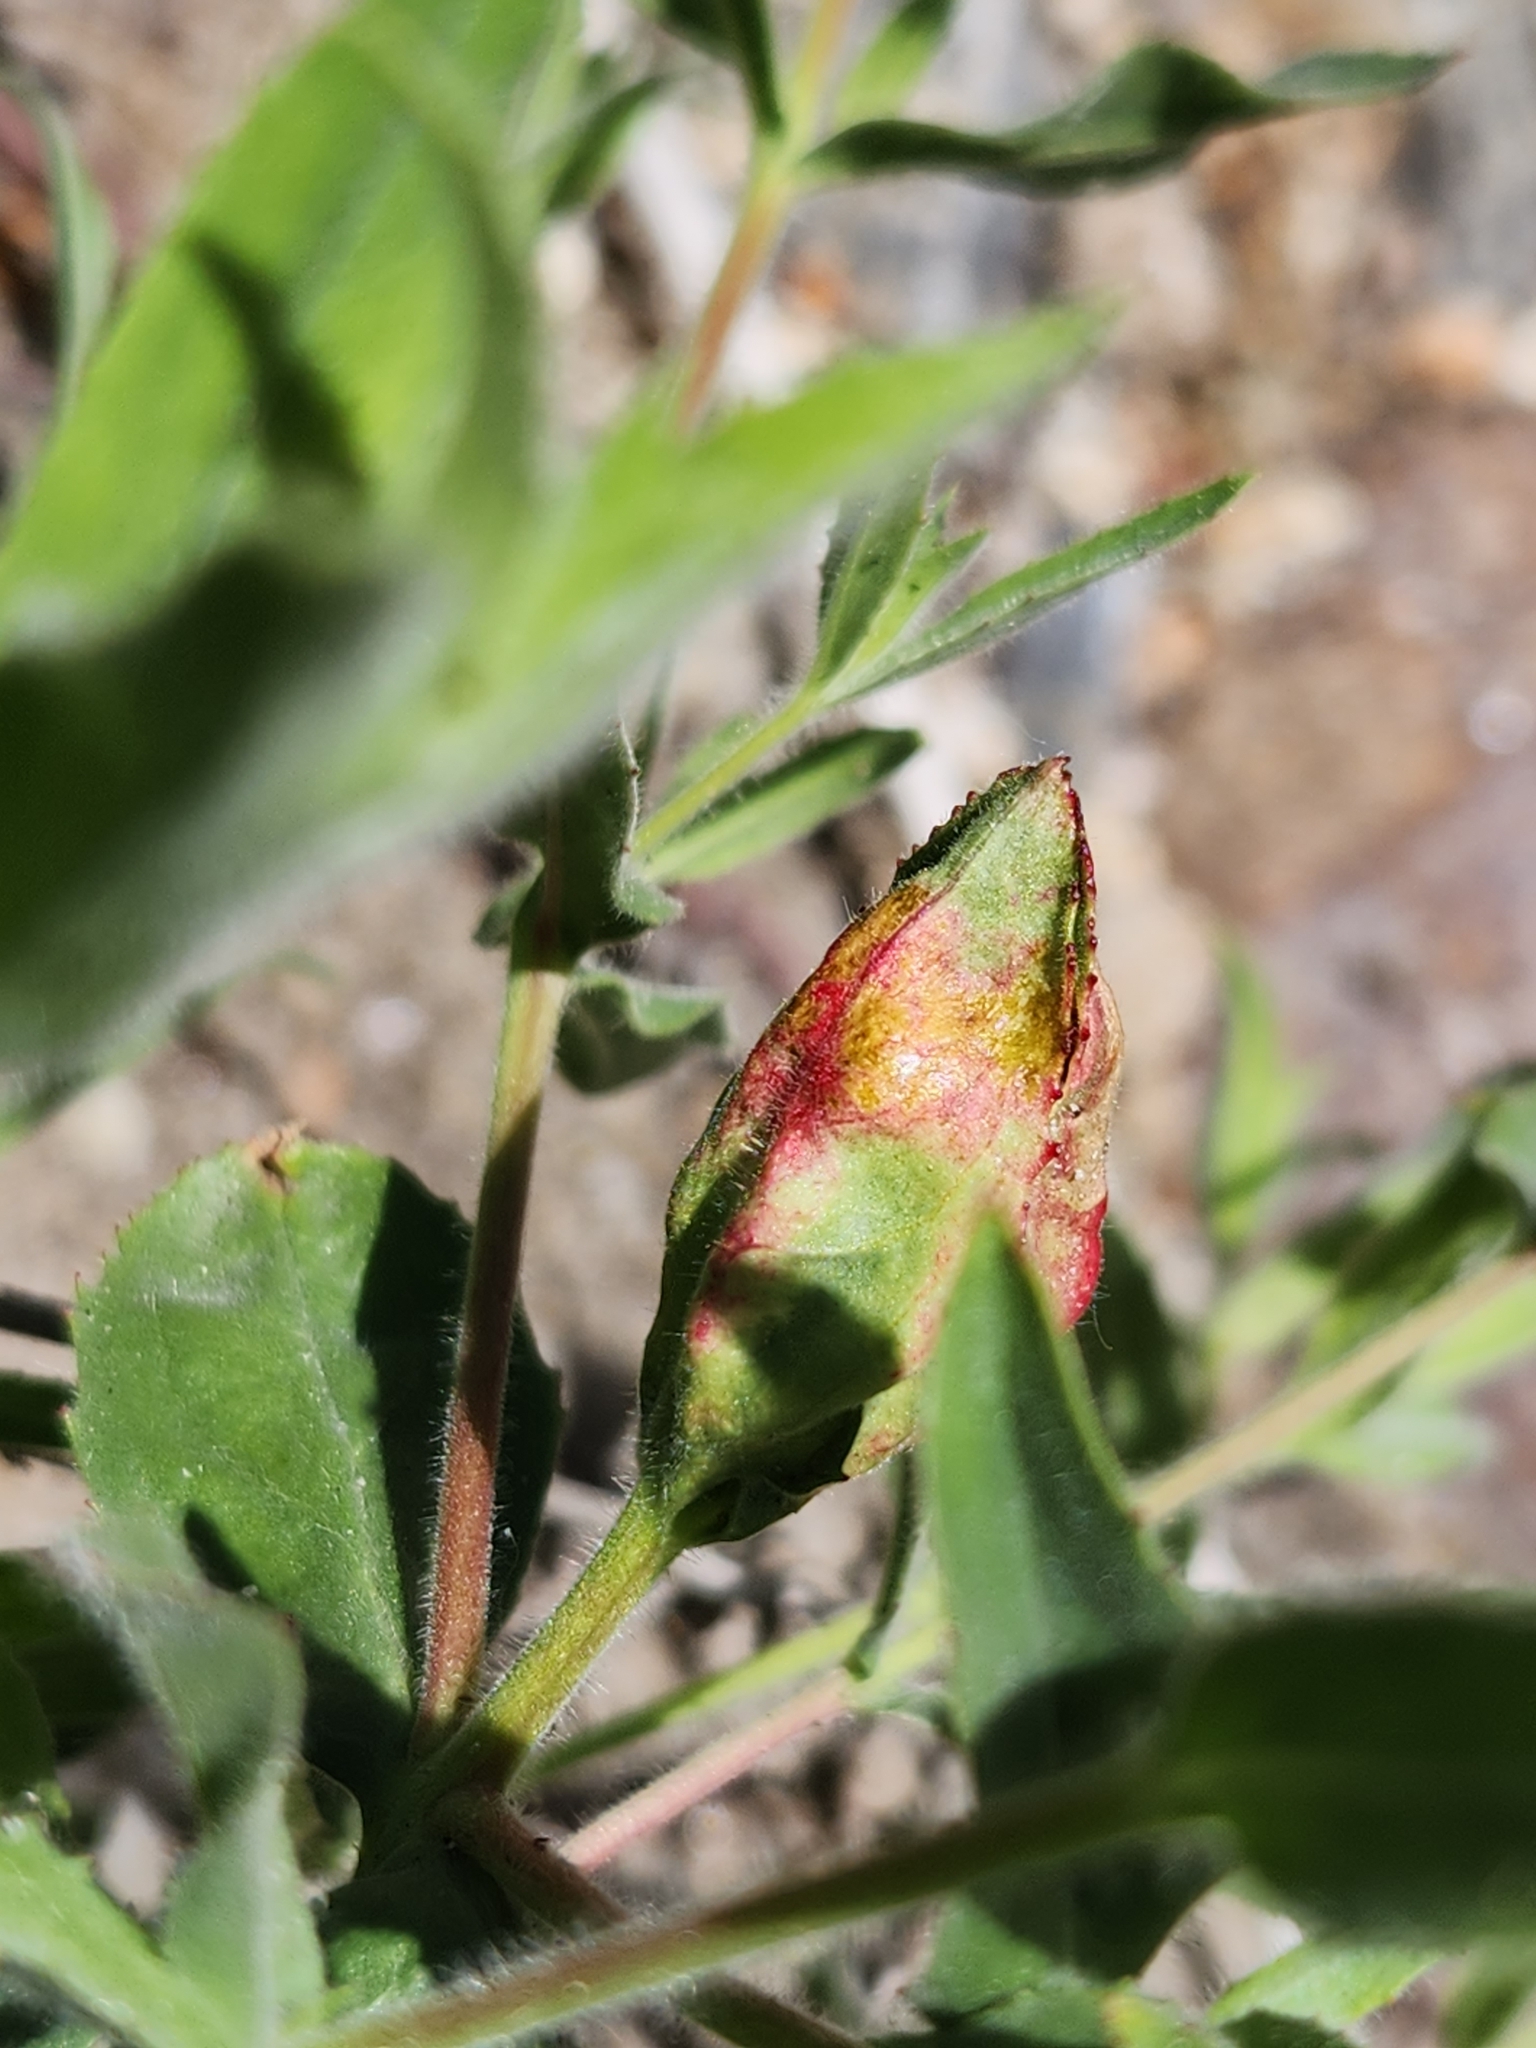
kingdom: Plantae
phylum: Tracheophyta
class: Magnoliopsida
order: Myrtales
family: Onagraceae
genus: Epilobium
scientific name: Epilobium canum
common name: California-fuchsia
